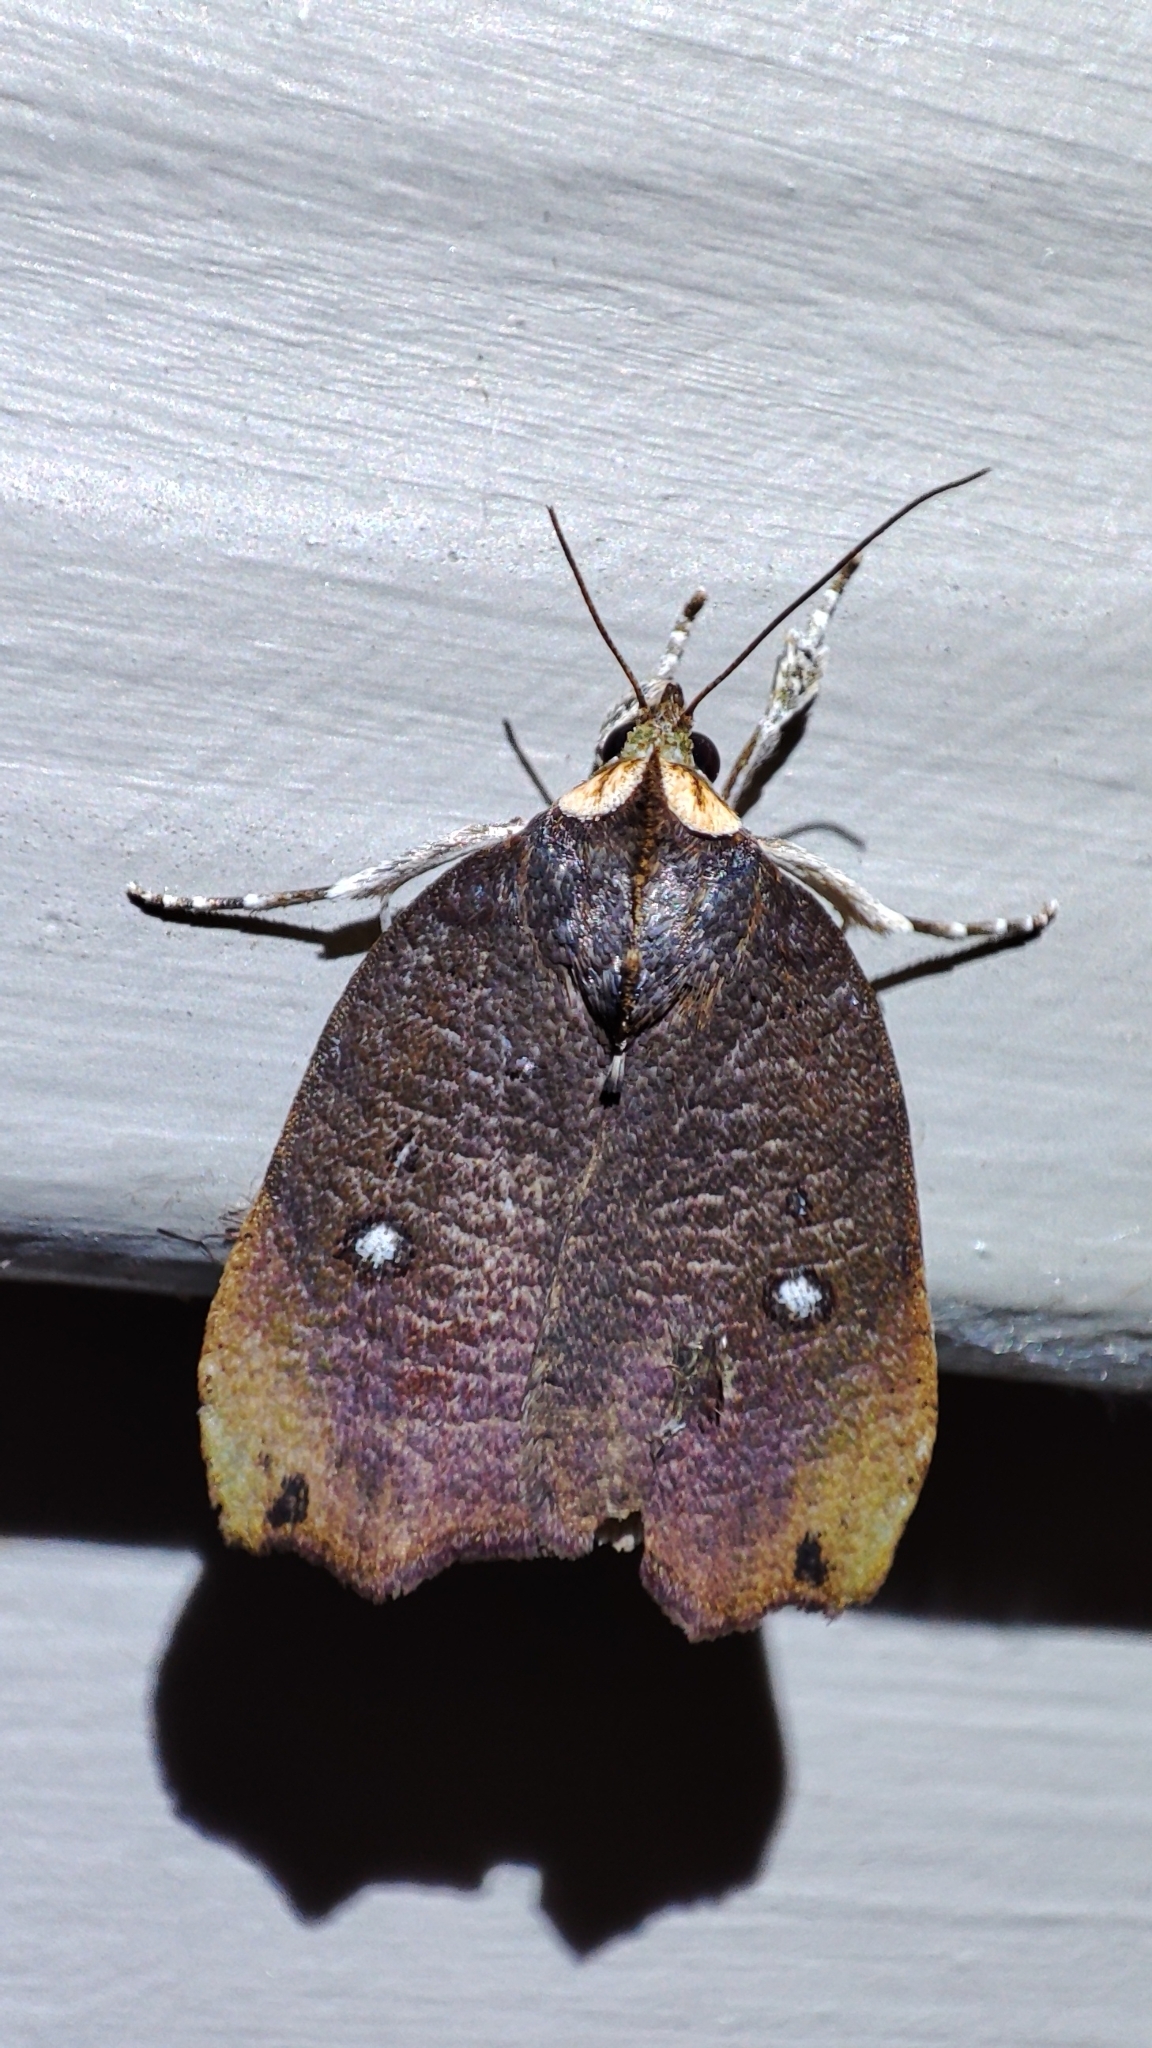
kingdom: Animalia
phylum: Arthropoda
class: Insecta
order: Lepidoptera
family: Nolidae
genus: Acripia
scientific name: Acripia subolivacea
